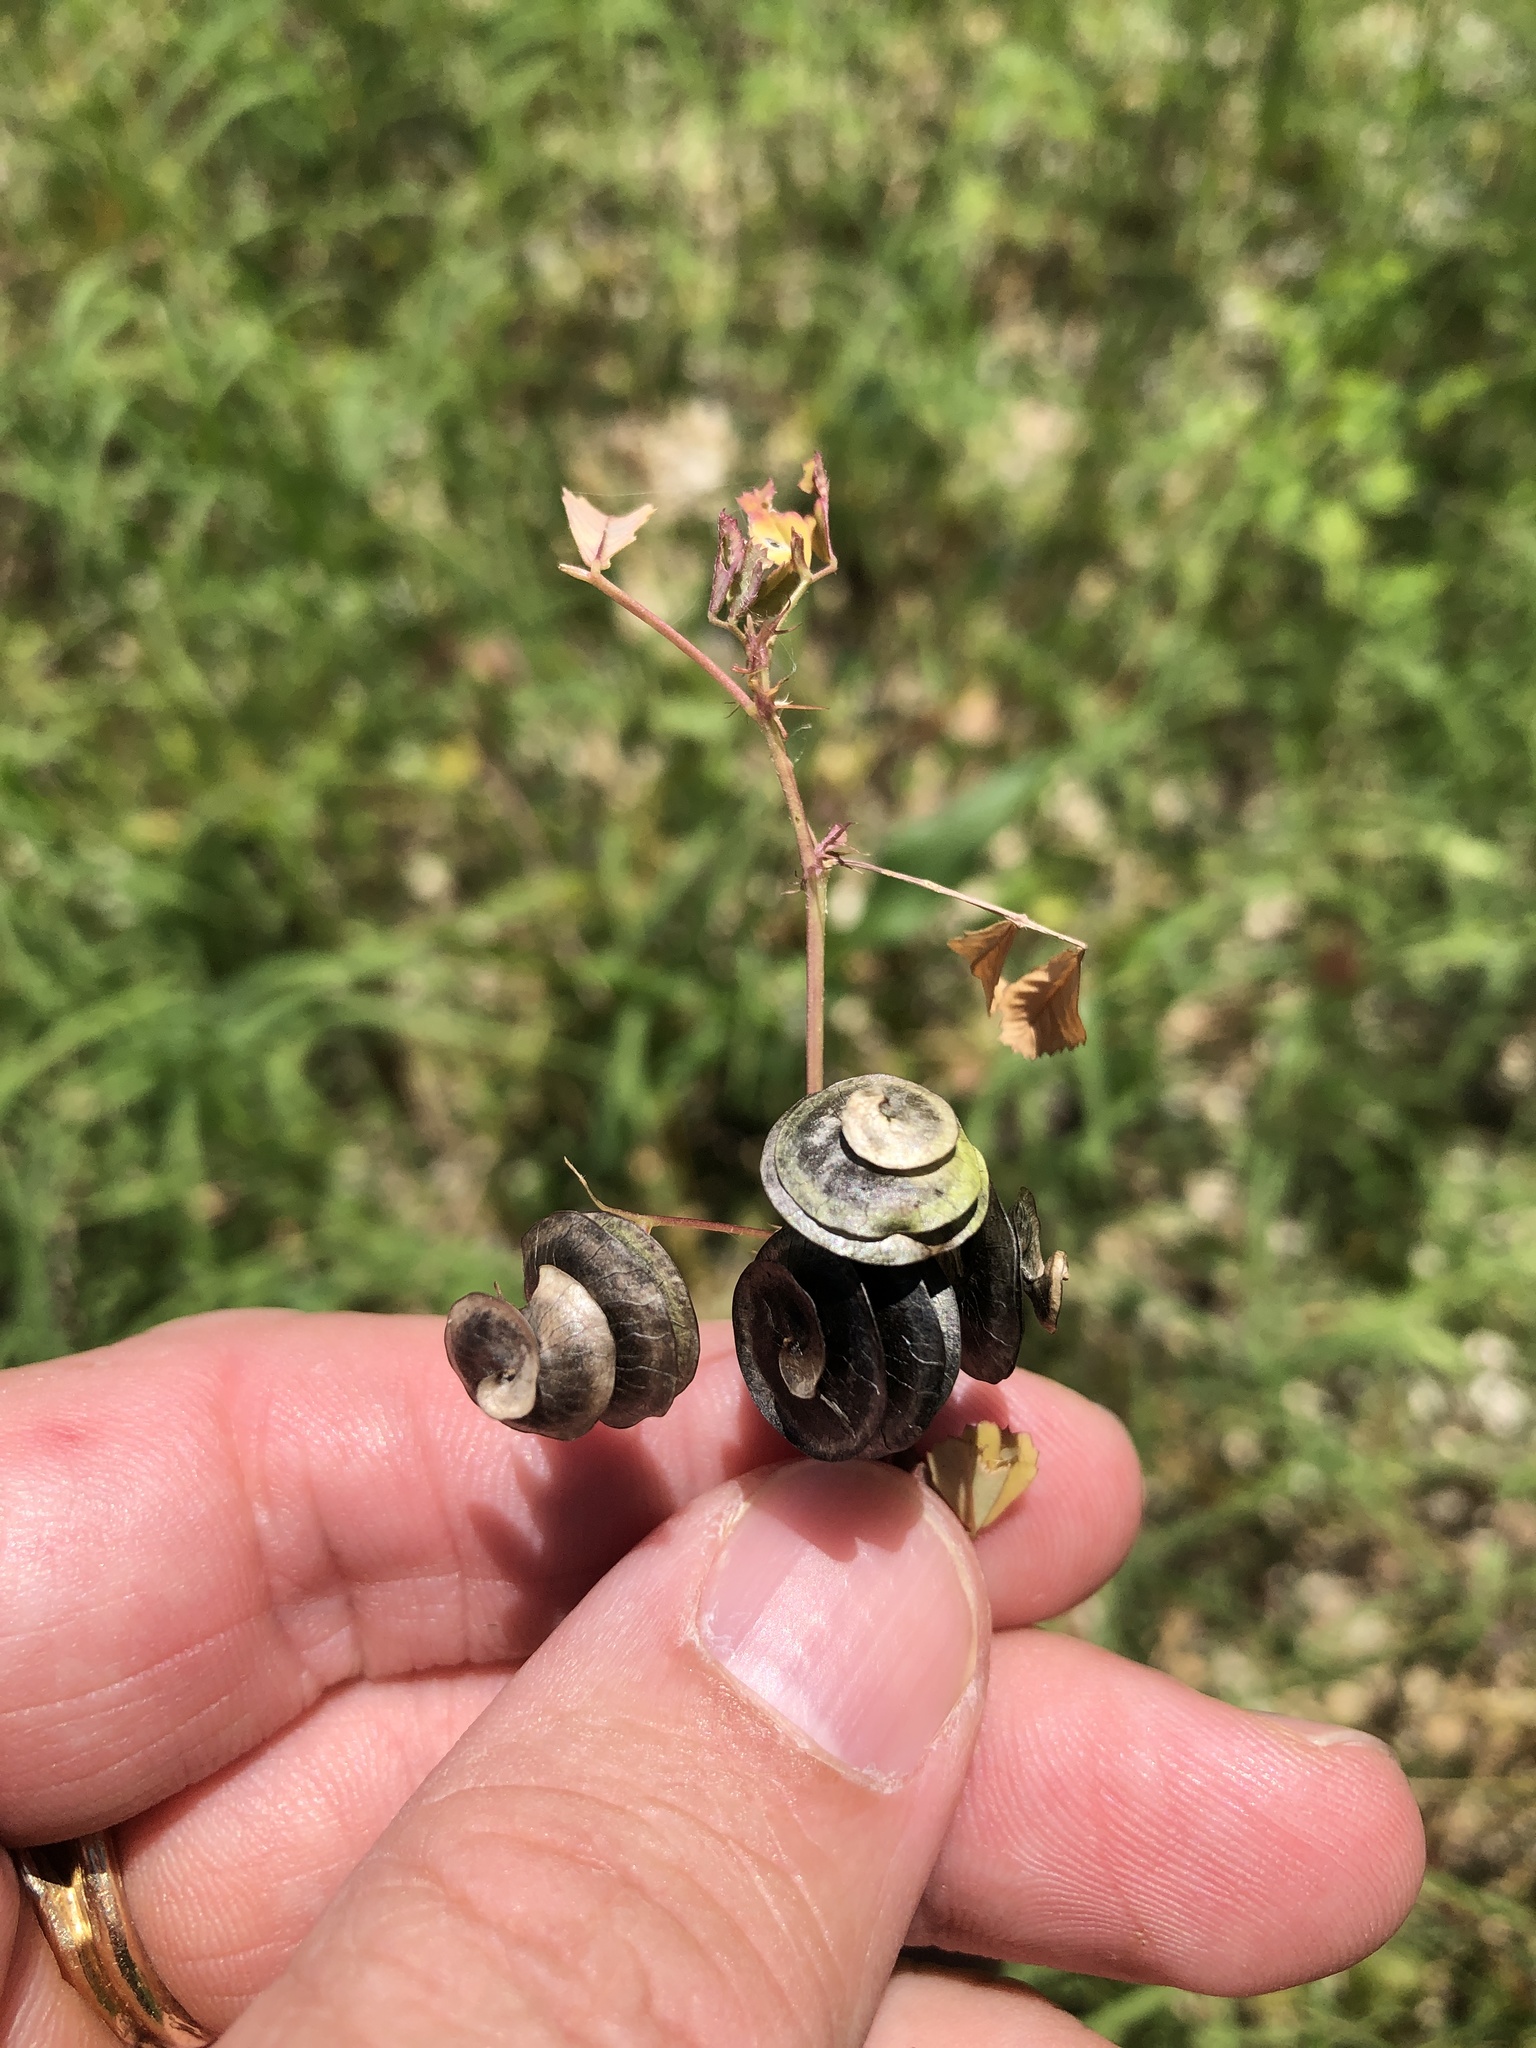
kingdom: Plantae
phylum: Tracheophyta
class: Magnoliopsida
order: Fabales
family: Fabaceae
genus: Medicago
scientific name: Medicago orbicularis
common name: Button medick
